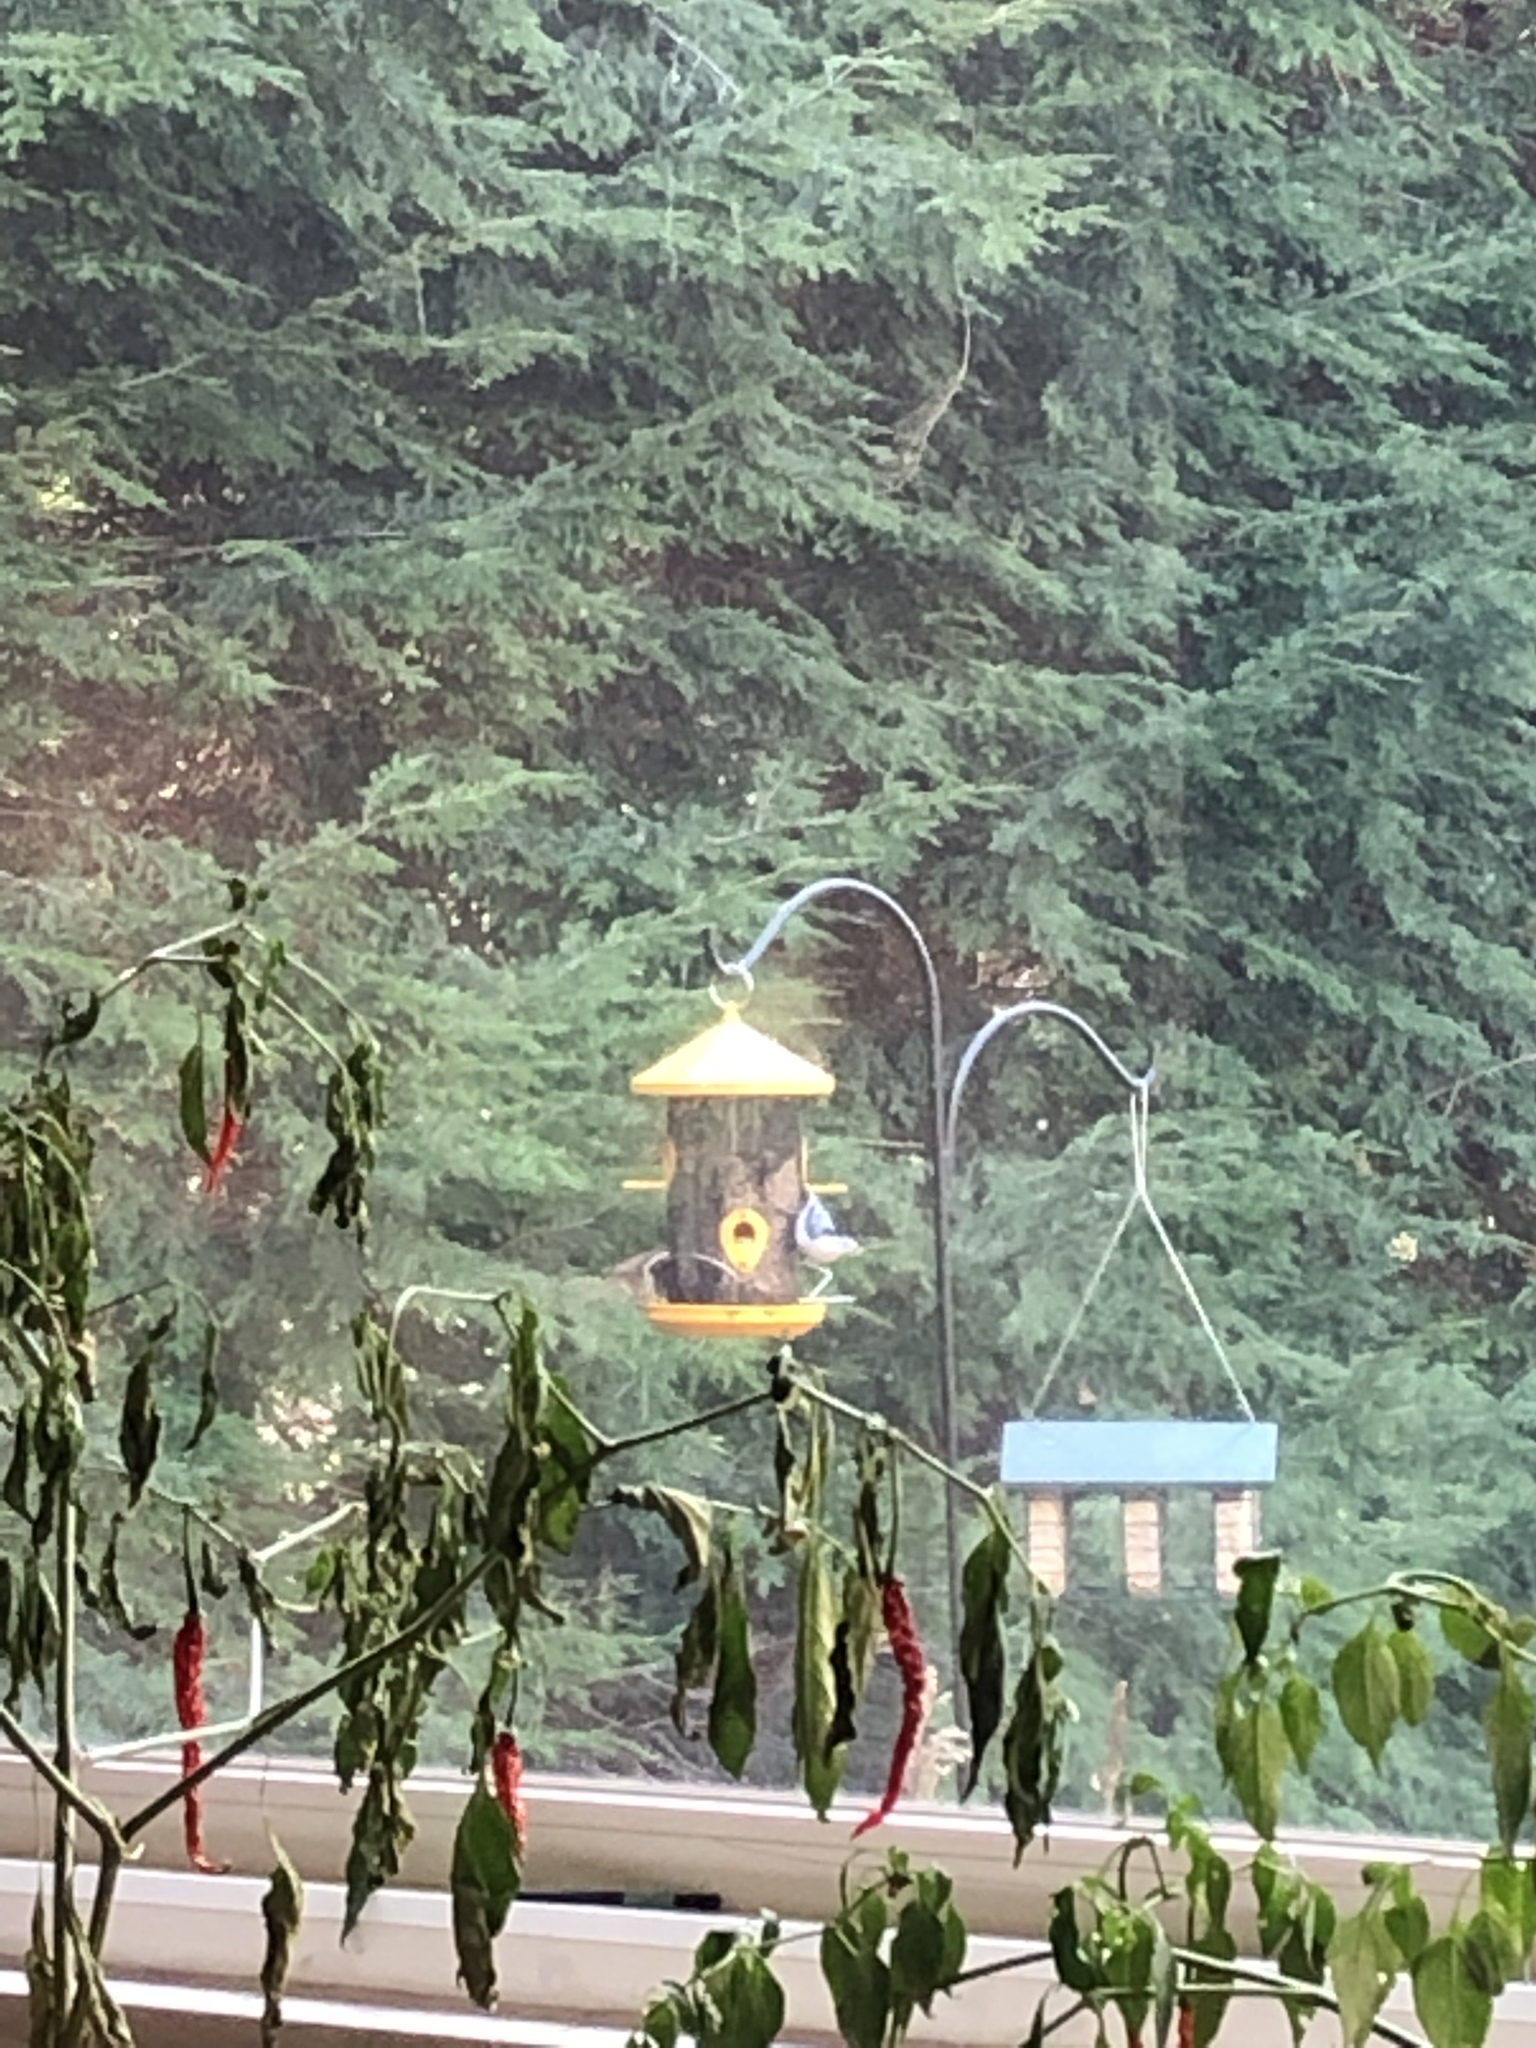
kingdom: Animalia
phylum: Chordata
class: Aves
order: Passeriformes
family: Sittidae
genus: Sitta
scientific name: Sitta carolinensis
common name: White-breasted nuthatch
